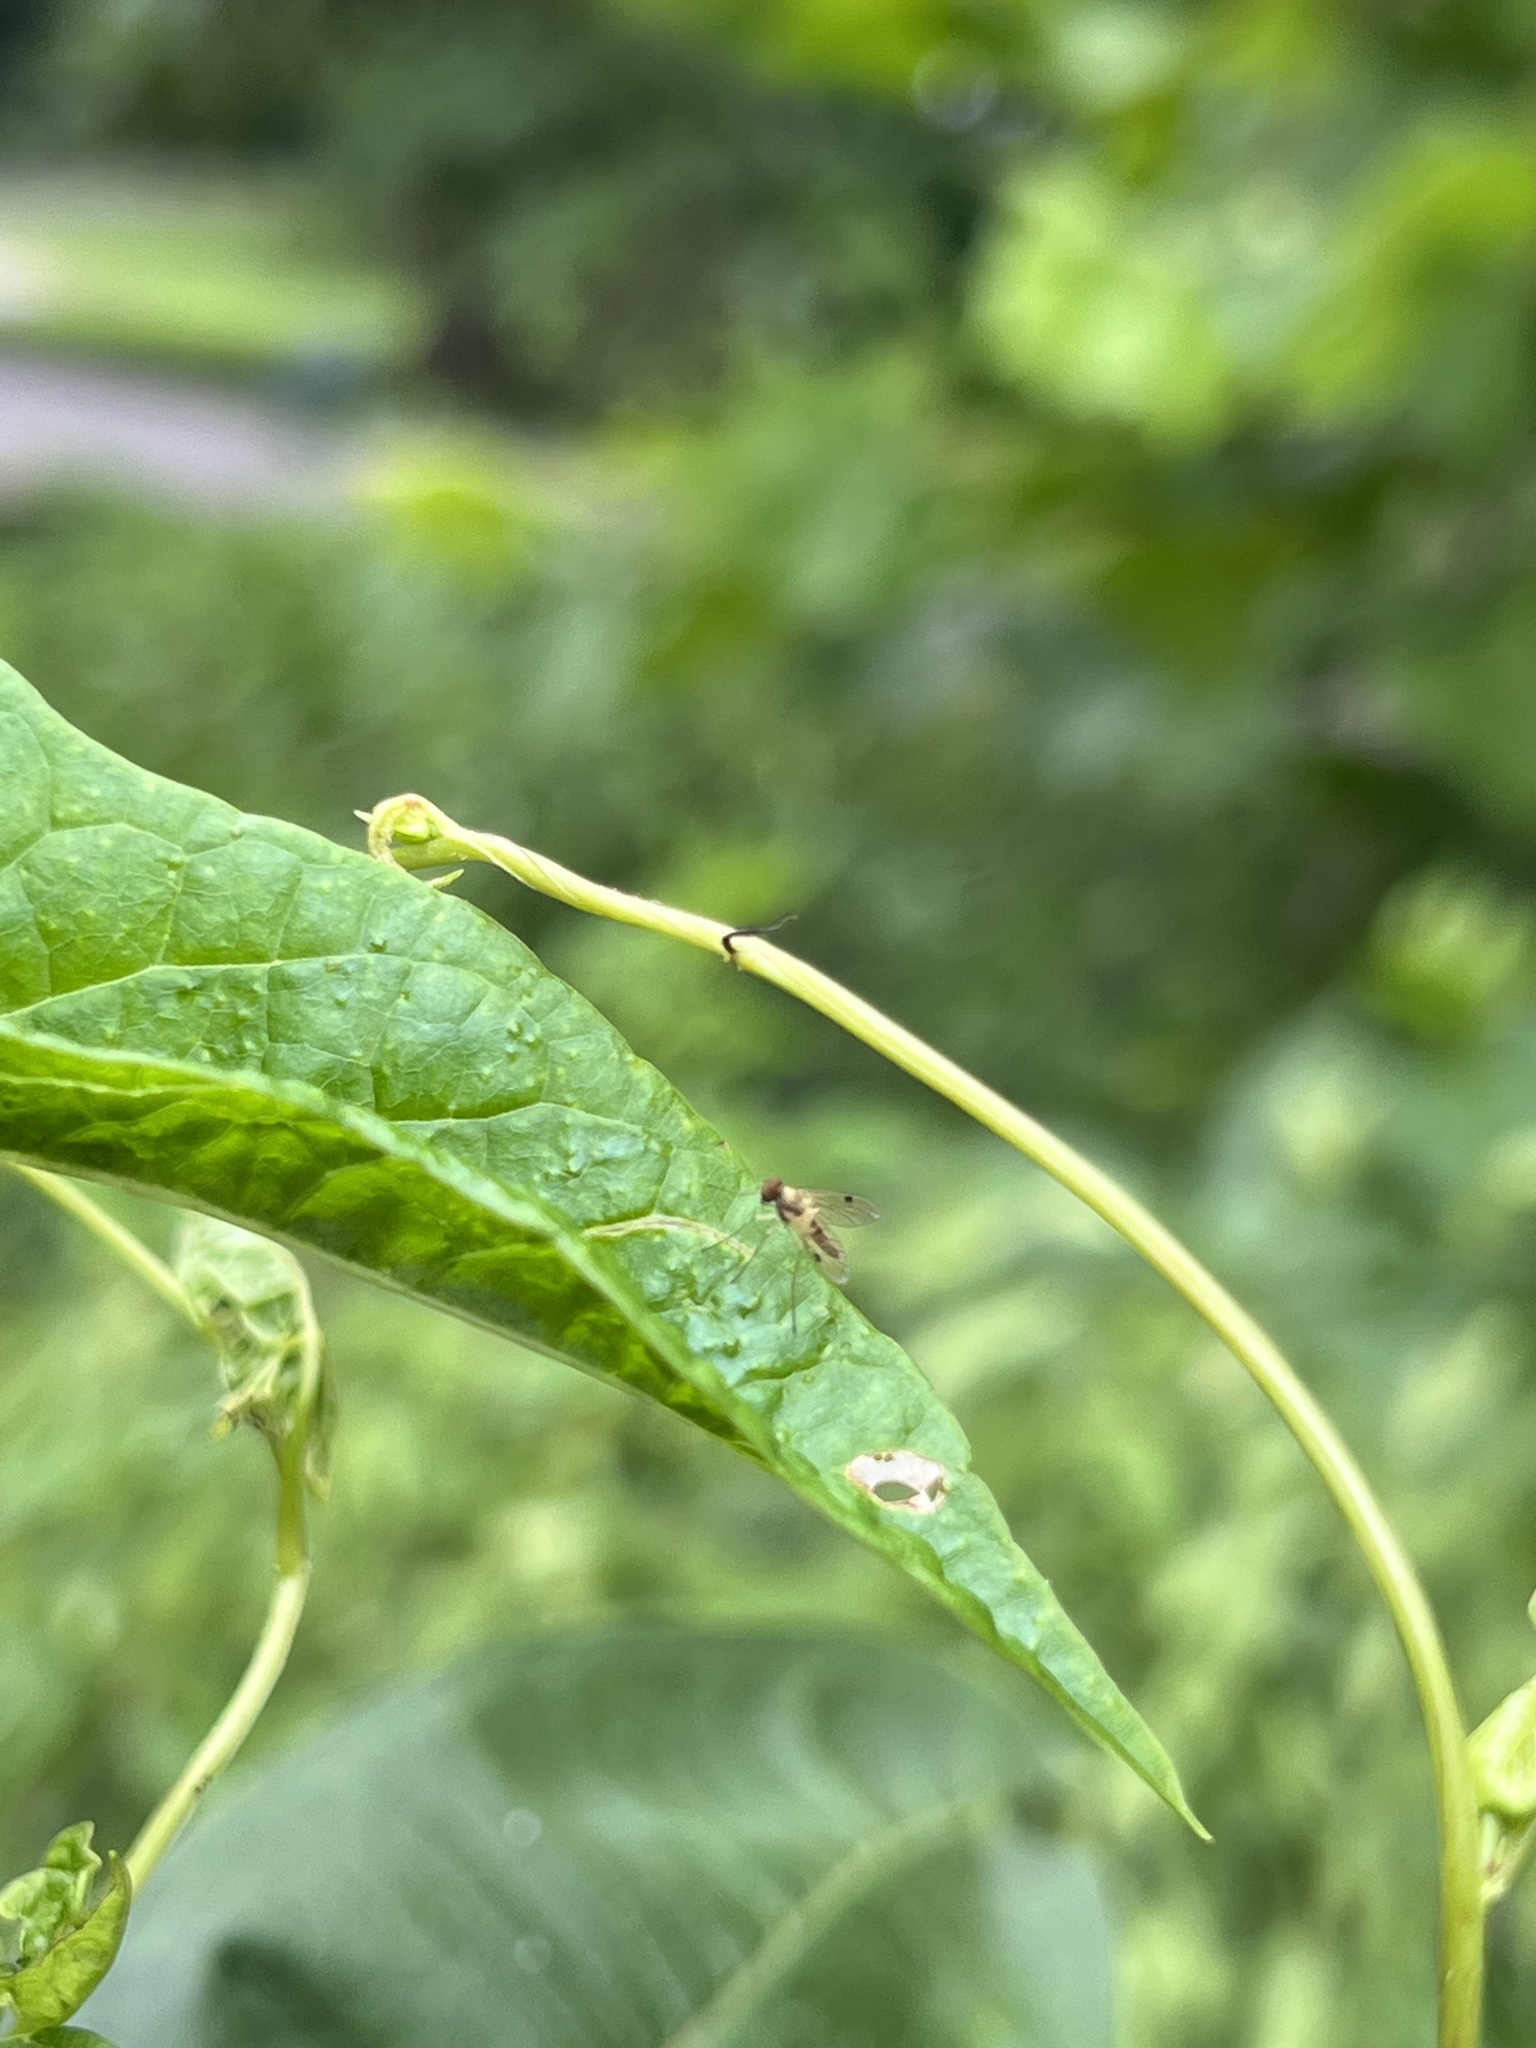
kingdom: Animalia
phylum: Arthropoda
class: Insecta
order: Diptera
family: Rhagionidae
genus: Chrysopilus
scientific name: Chrysopilus modestus
